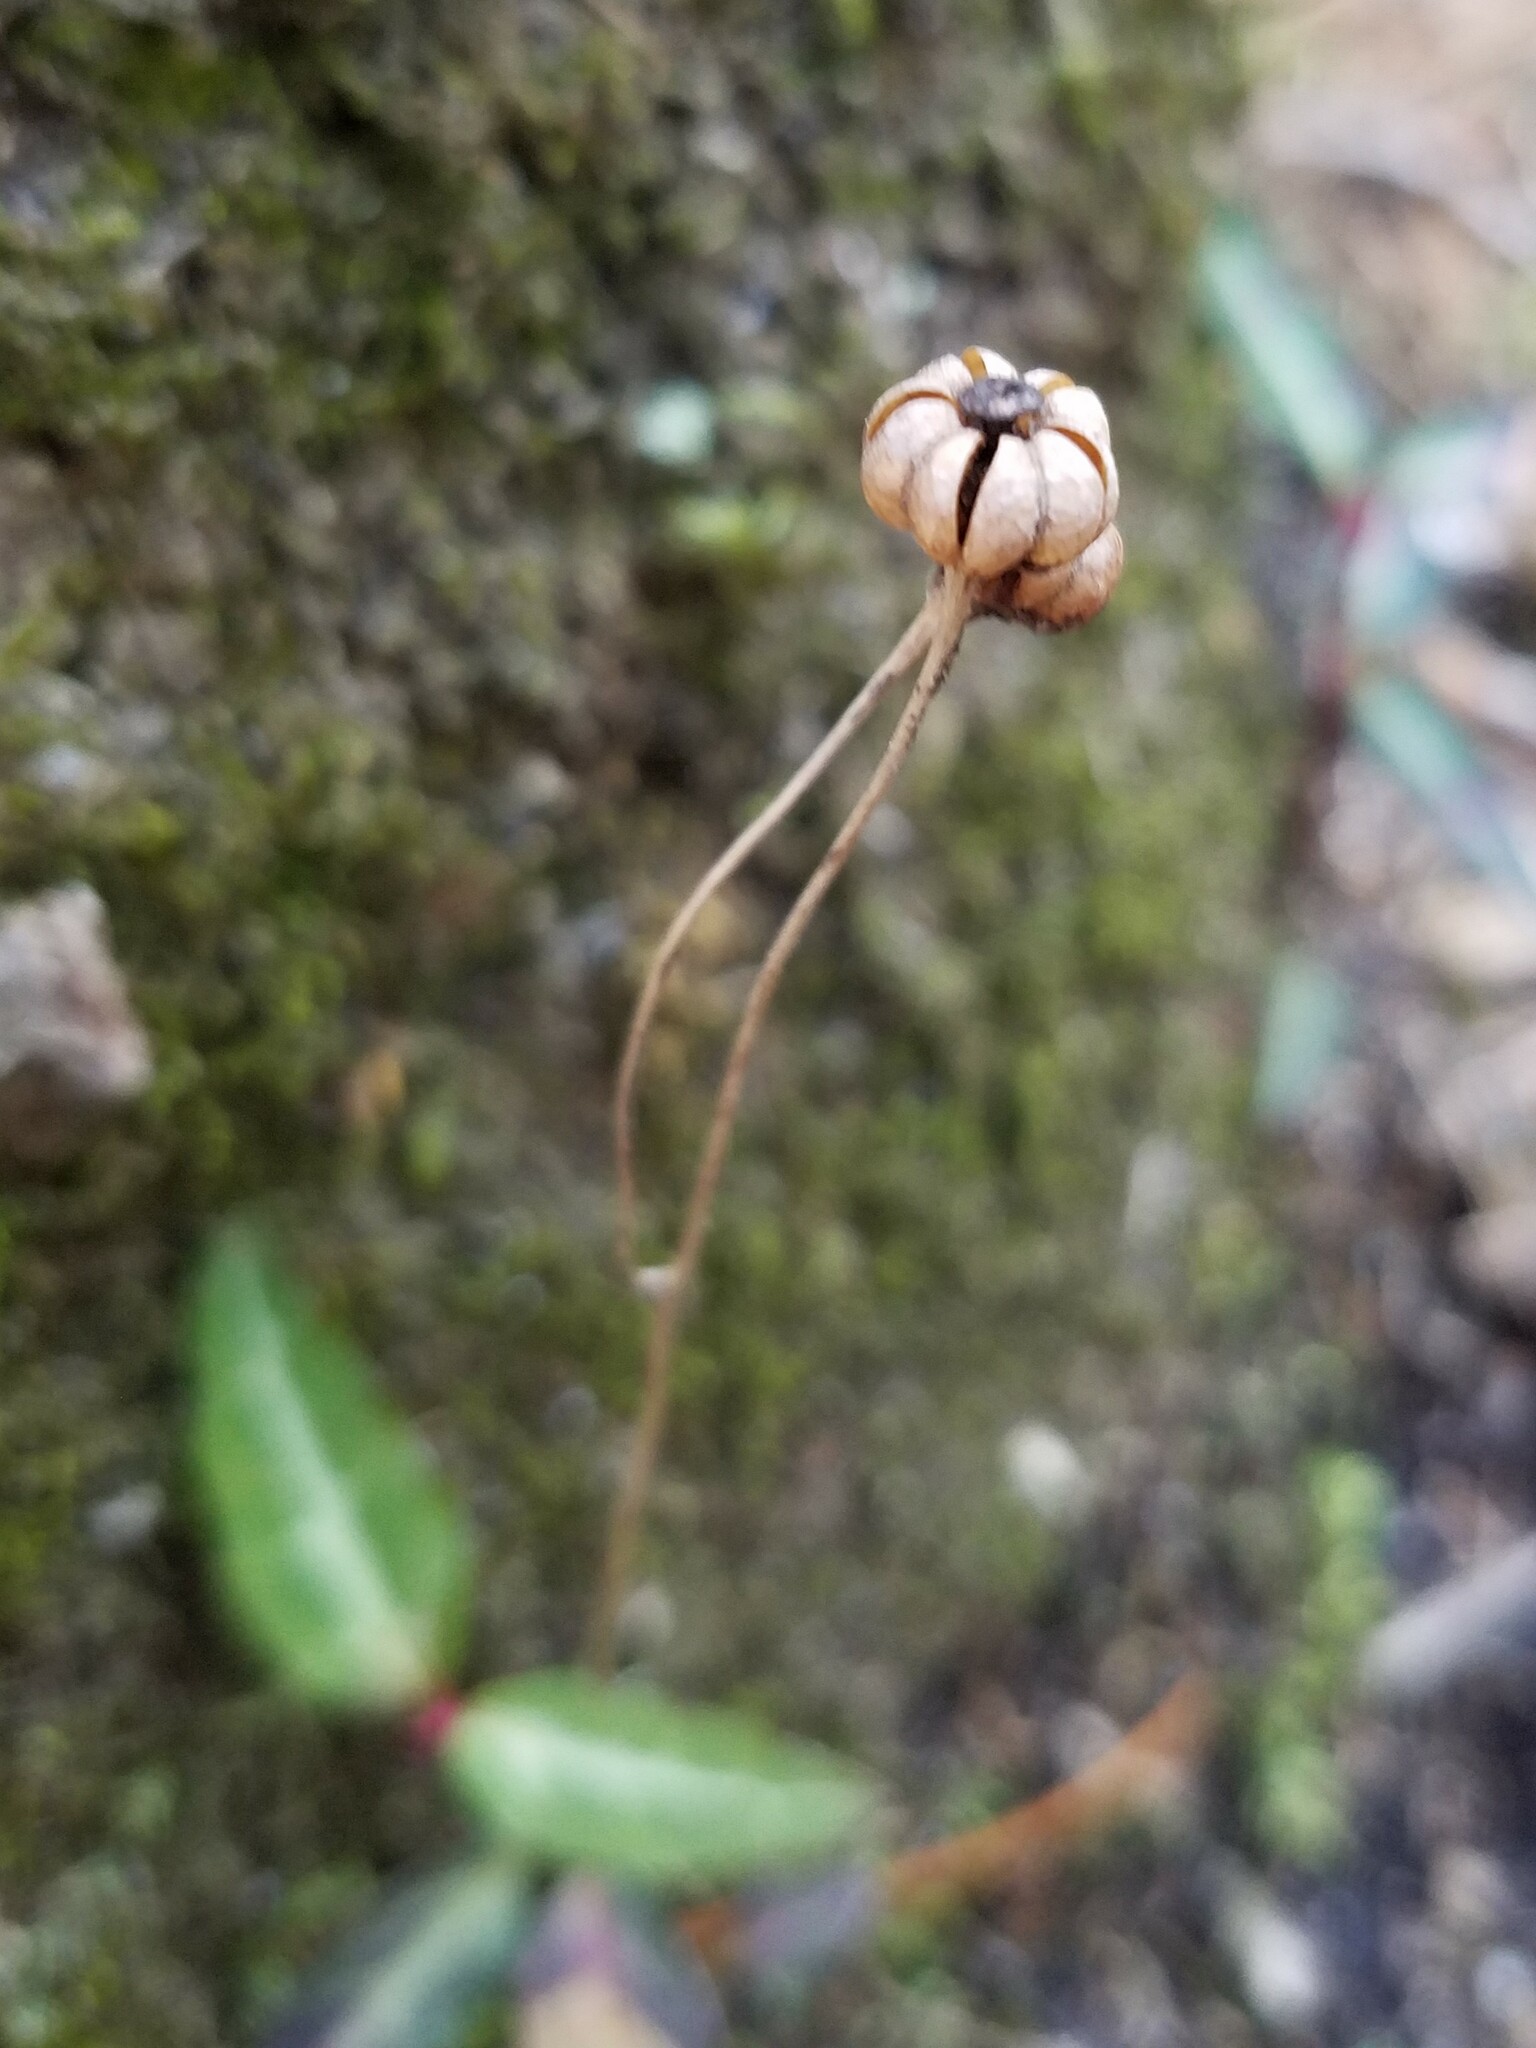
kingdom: Plantae
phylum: Tracheophyta
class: Magnoliopsida
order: Ericales
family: Ericaceae
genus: Chimaphila
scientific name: Chimaphila maculata
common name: Spotted pipsissewa
